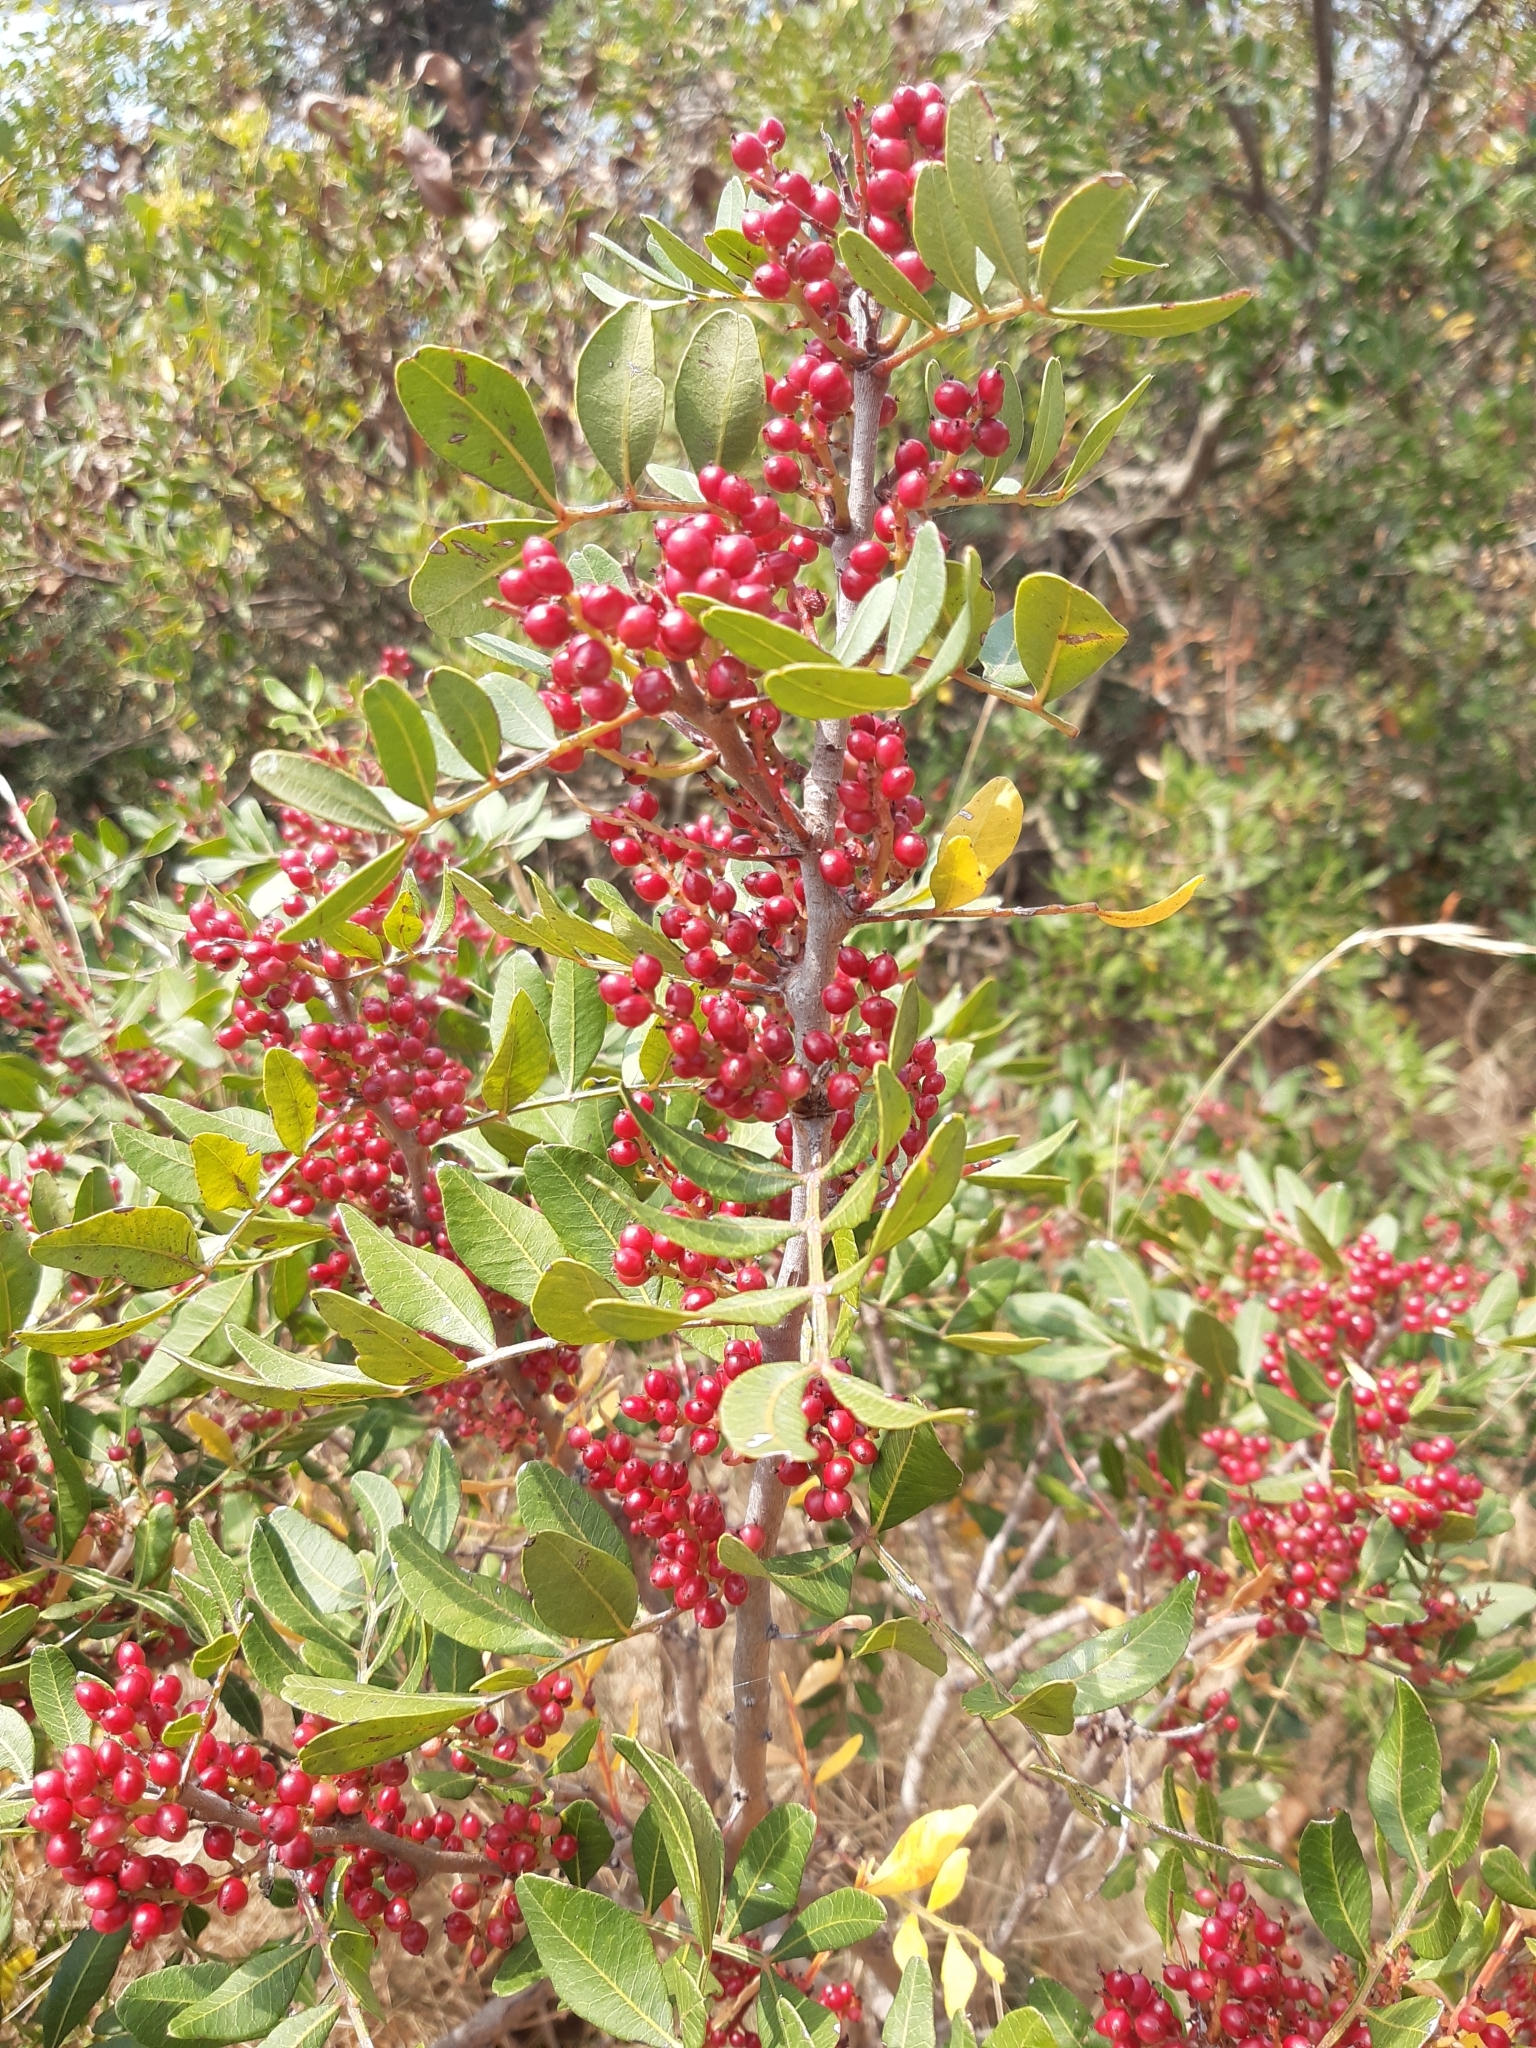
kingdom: Plantae
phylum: Tracheophyta
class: Magnoliopsida
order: Sapindales
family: Anacardiaceae
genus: Pistacia
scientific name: Pistacia lentiscus
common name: Lentisk
